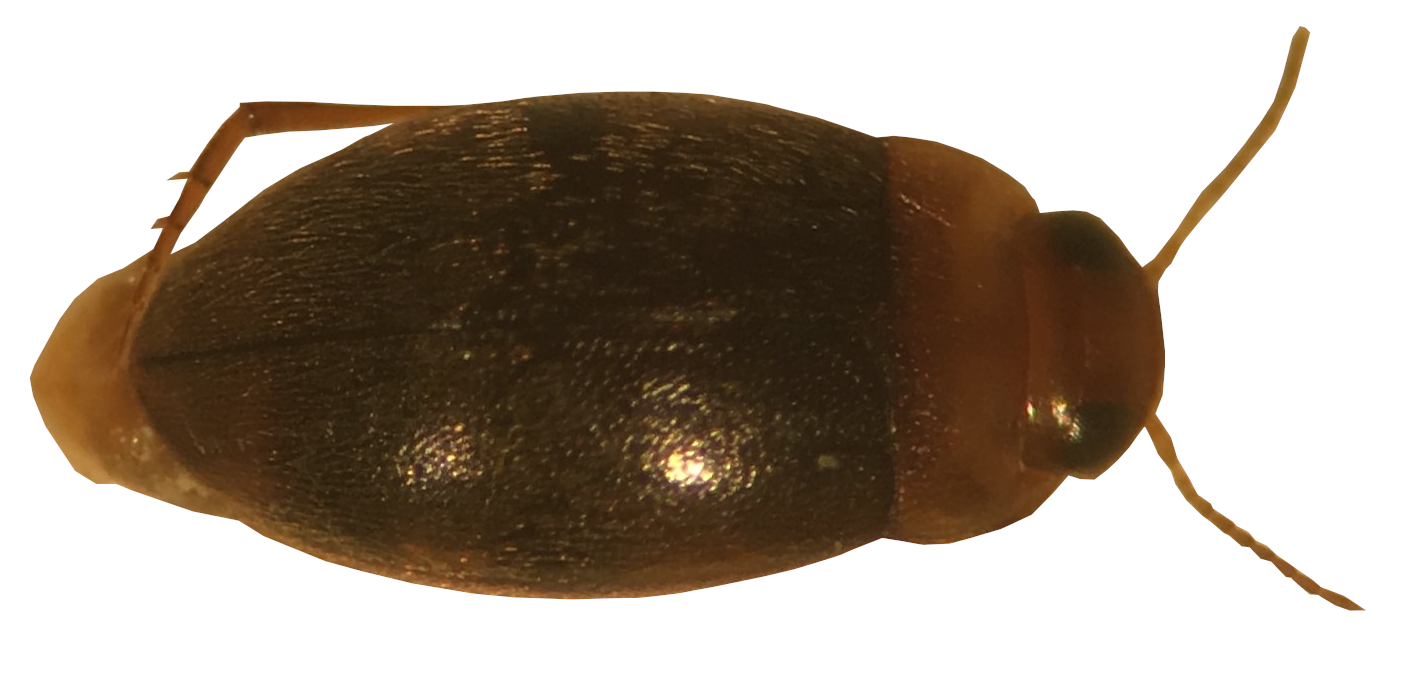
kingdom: Animalia
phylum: Arthropoda
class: Insecta
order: Coleoptera
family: Dytiscidae
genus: Bidessonotus
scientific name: Bidessonotus inconspicuus
